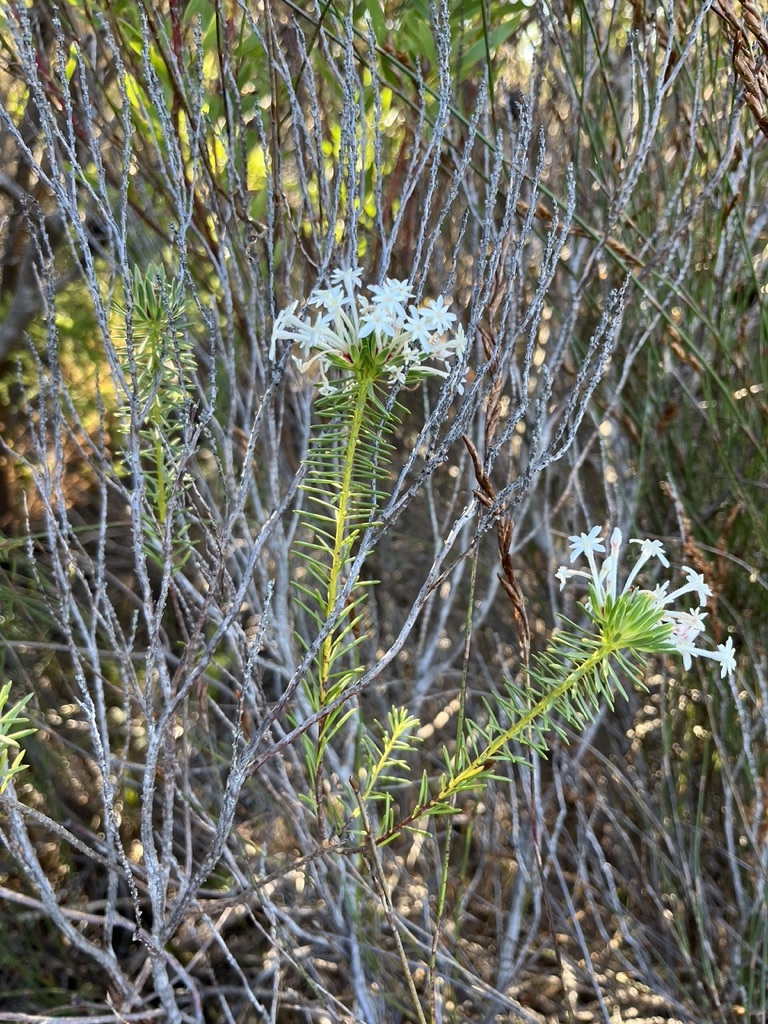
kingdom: Plantae
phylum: Tracheophyta
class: Magnoliopsida
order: Malvales
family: Thymelaeaceae
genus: Gnidia
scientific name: Gnidia pinifolia
